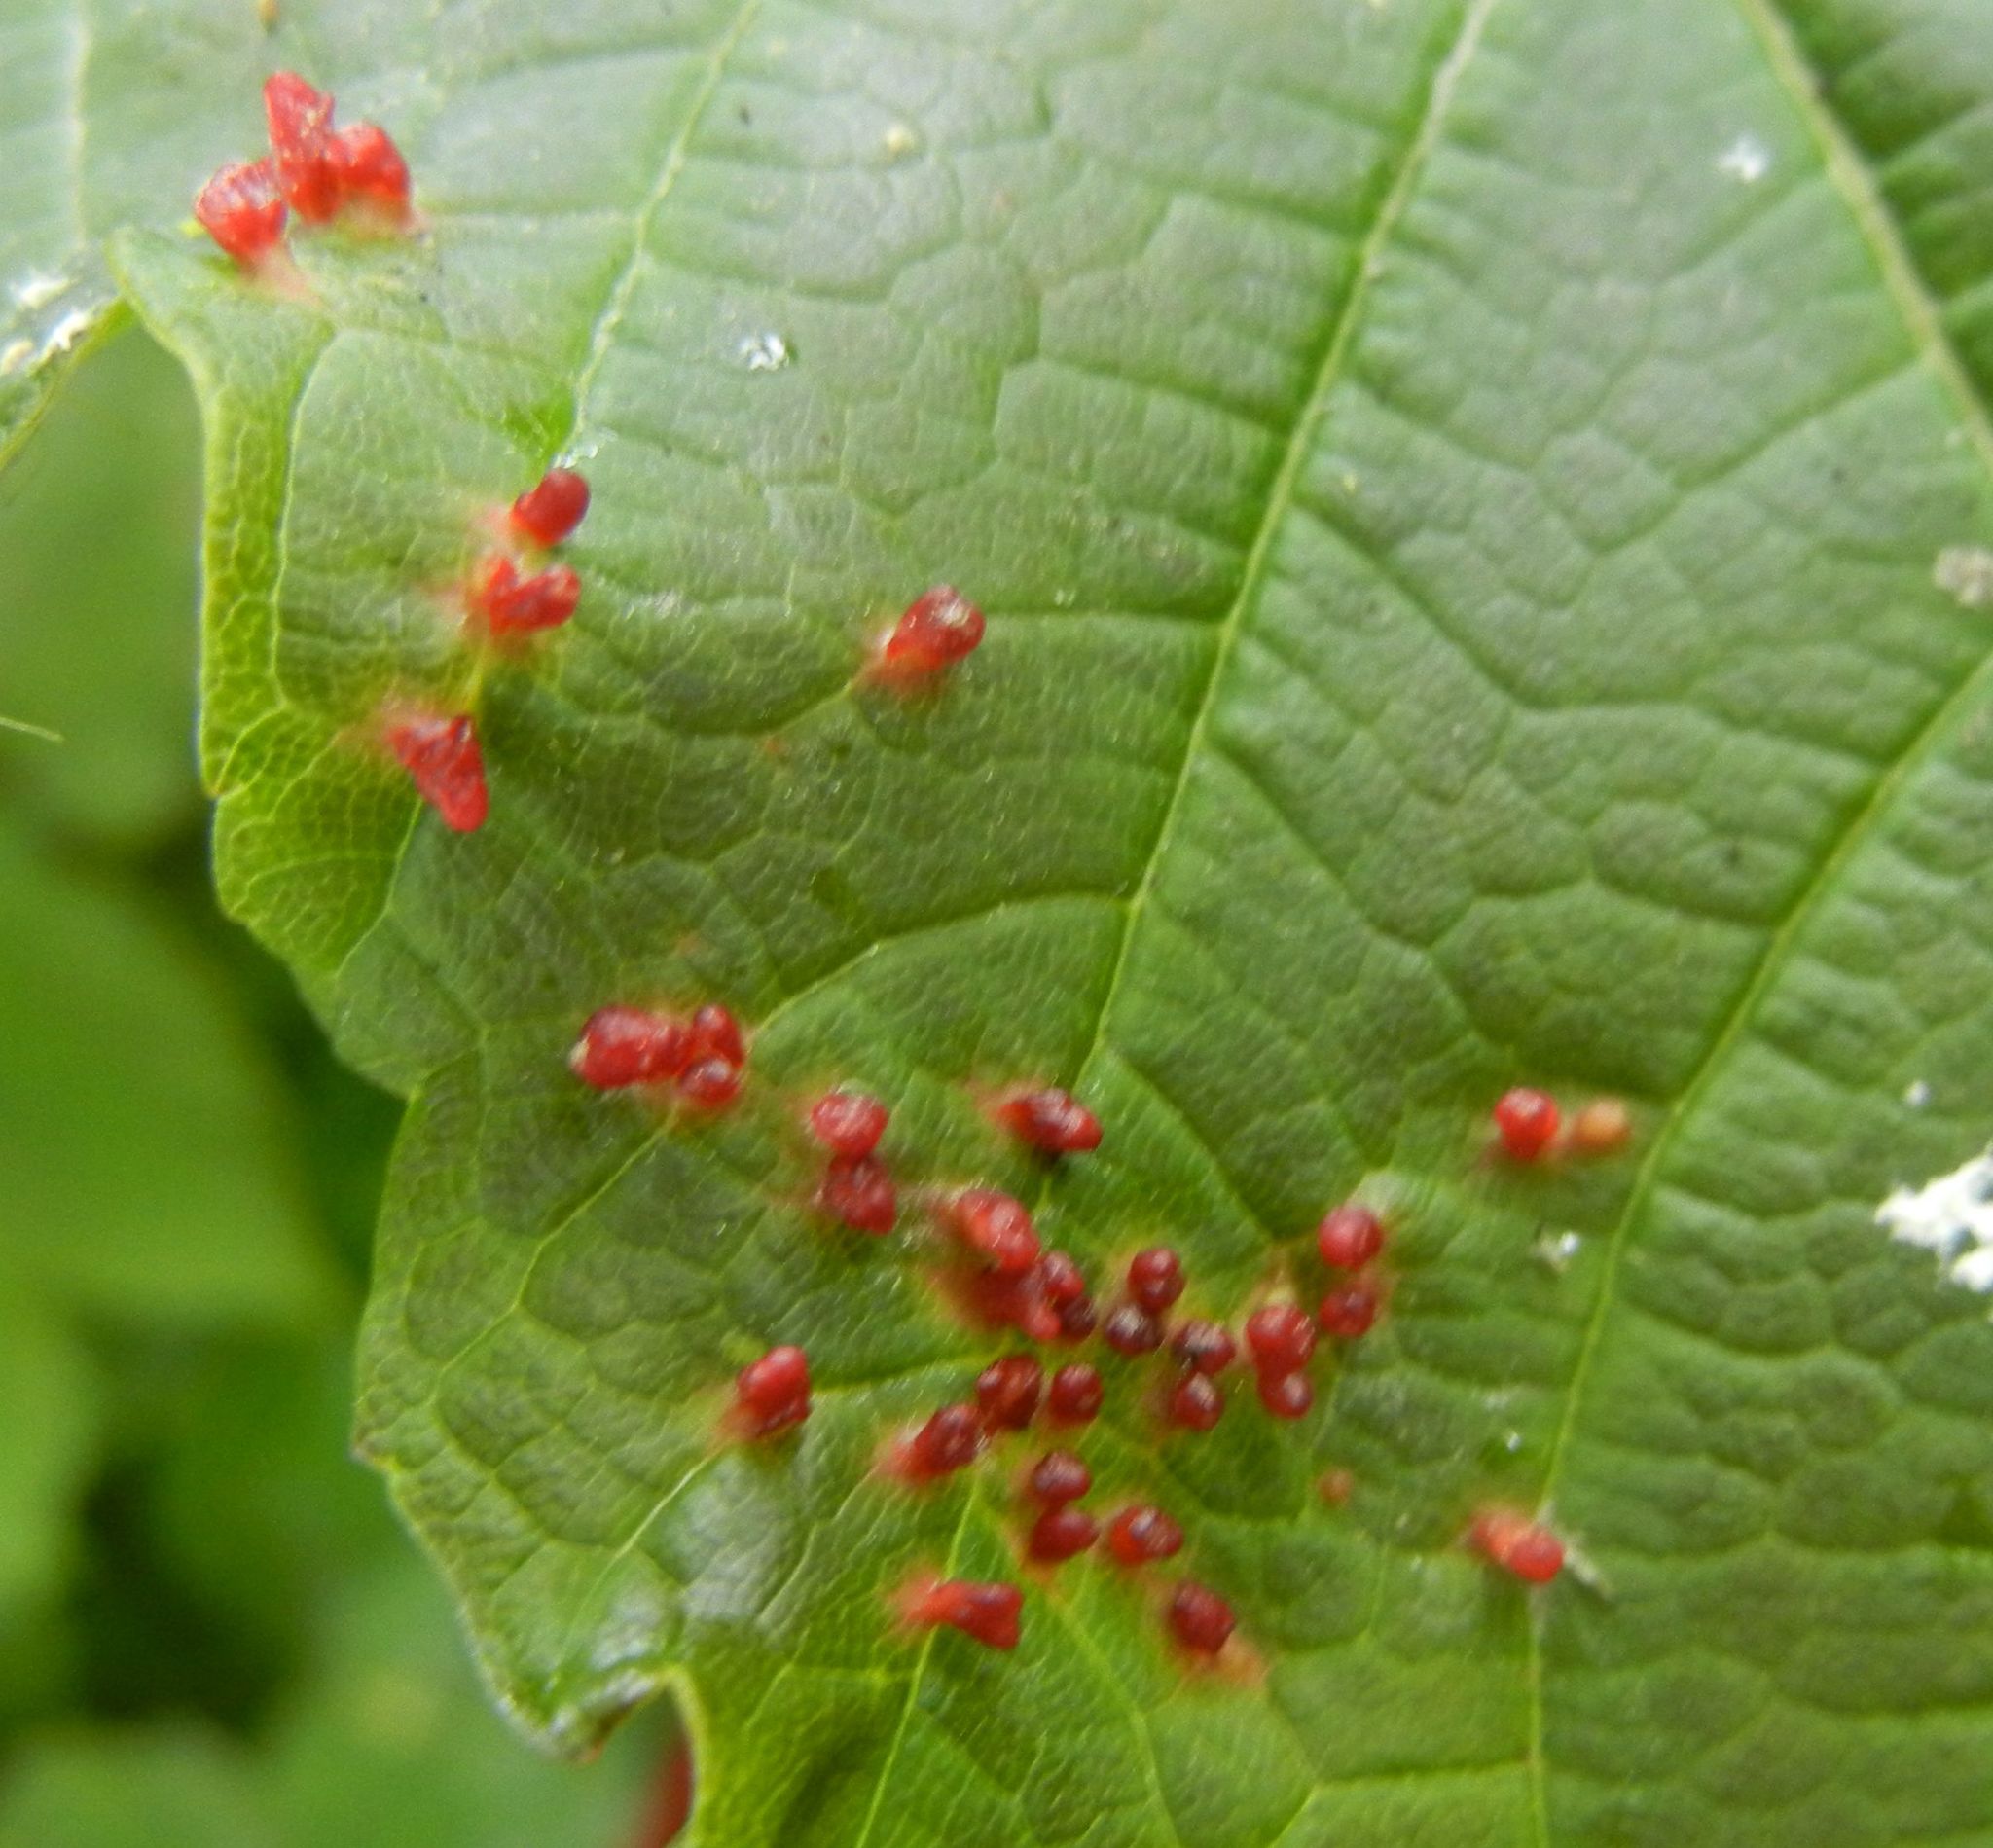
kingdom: Animalia
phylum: Arthropoda
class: Arachnida
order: Trombidiformes
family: Eriophyidae
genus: Aceria
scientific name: Aceria cephaloneus
